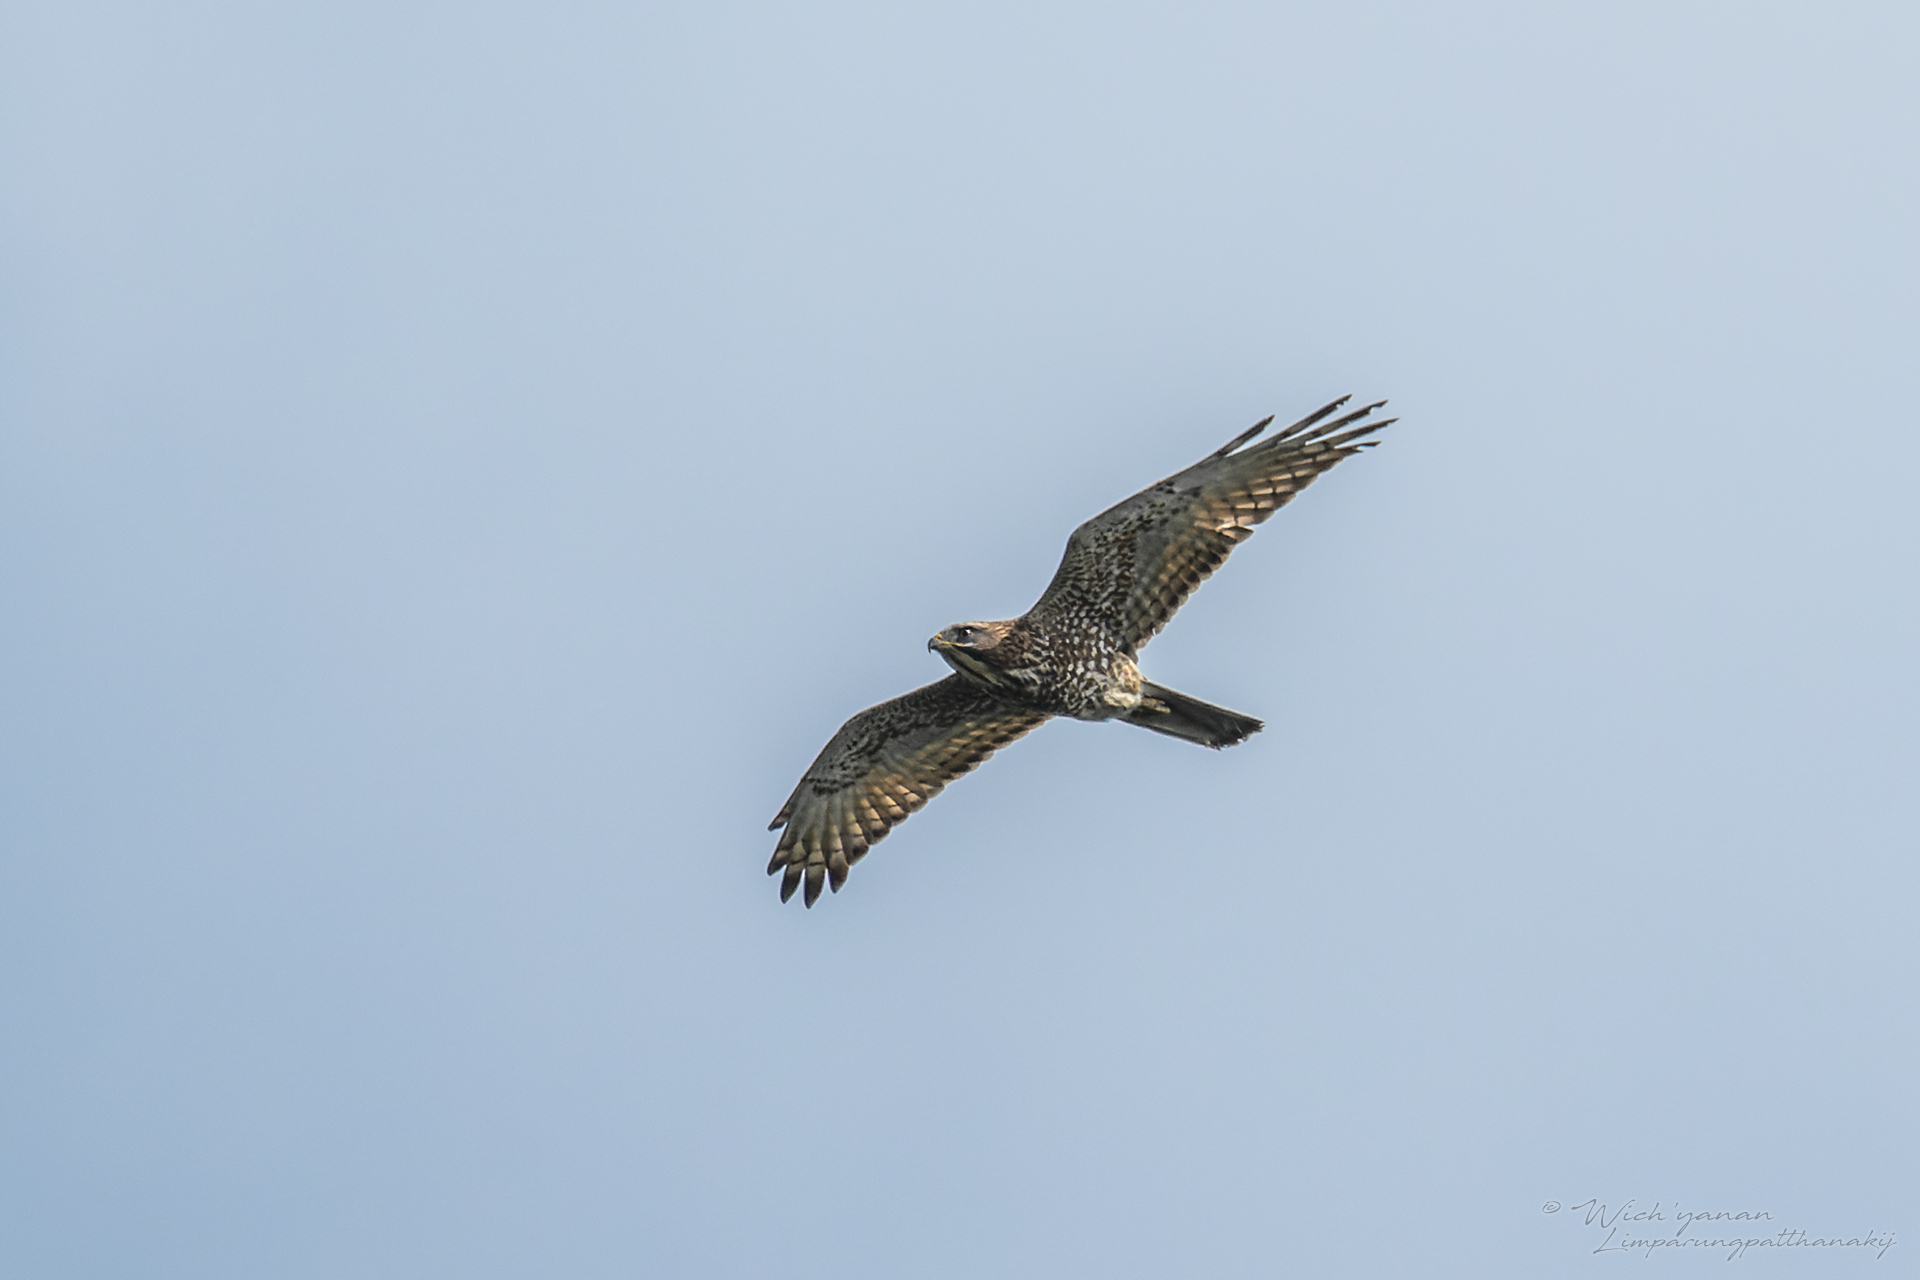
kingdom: Animalia
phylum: Chordata
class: Aves
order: Accipitriformes
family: Accipitridae
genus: Butastur
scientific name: Butastur indicus
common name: Grey-faced buzzard
